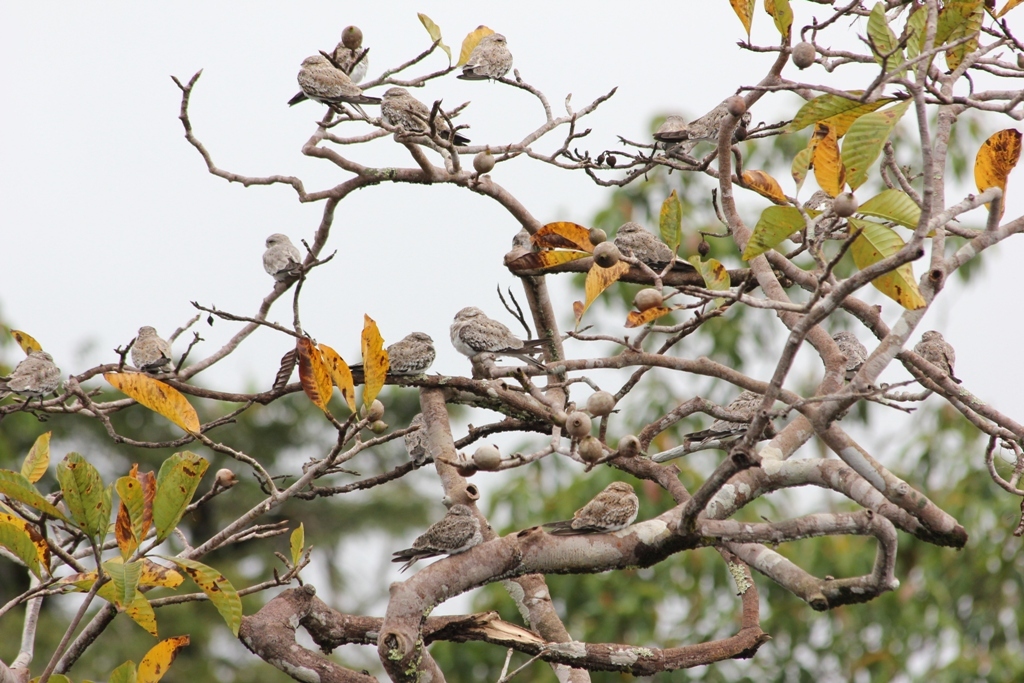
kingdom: Animalia
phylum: Chordata
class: Aves
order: Caprimulgiformes
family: Caprimulgidae
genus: Chordeiles
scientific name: Chordeiles rupestris
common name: Sand-colored nighthawk
